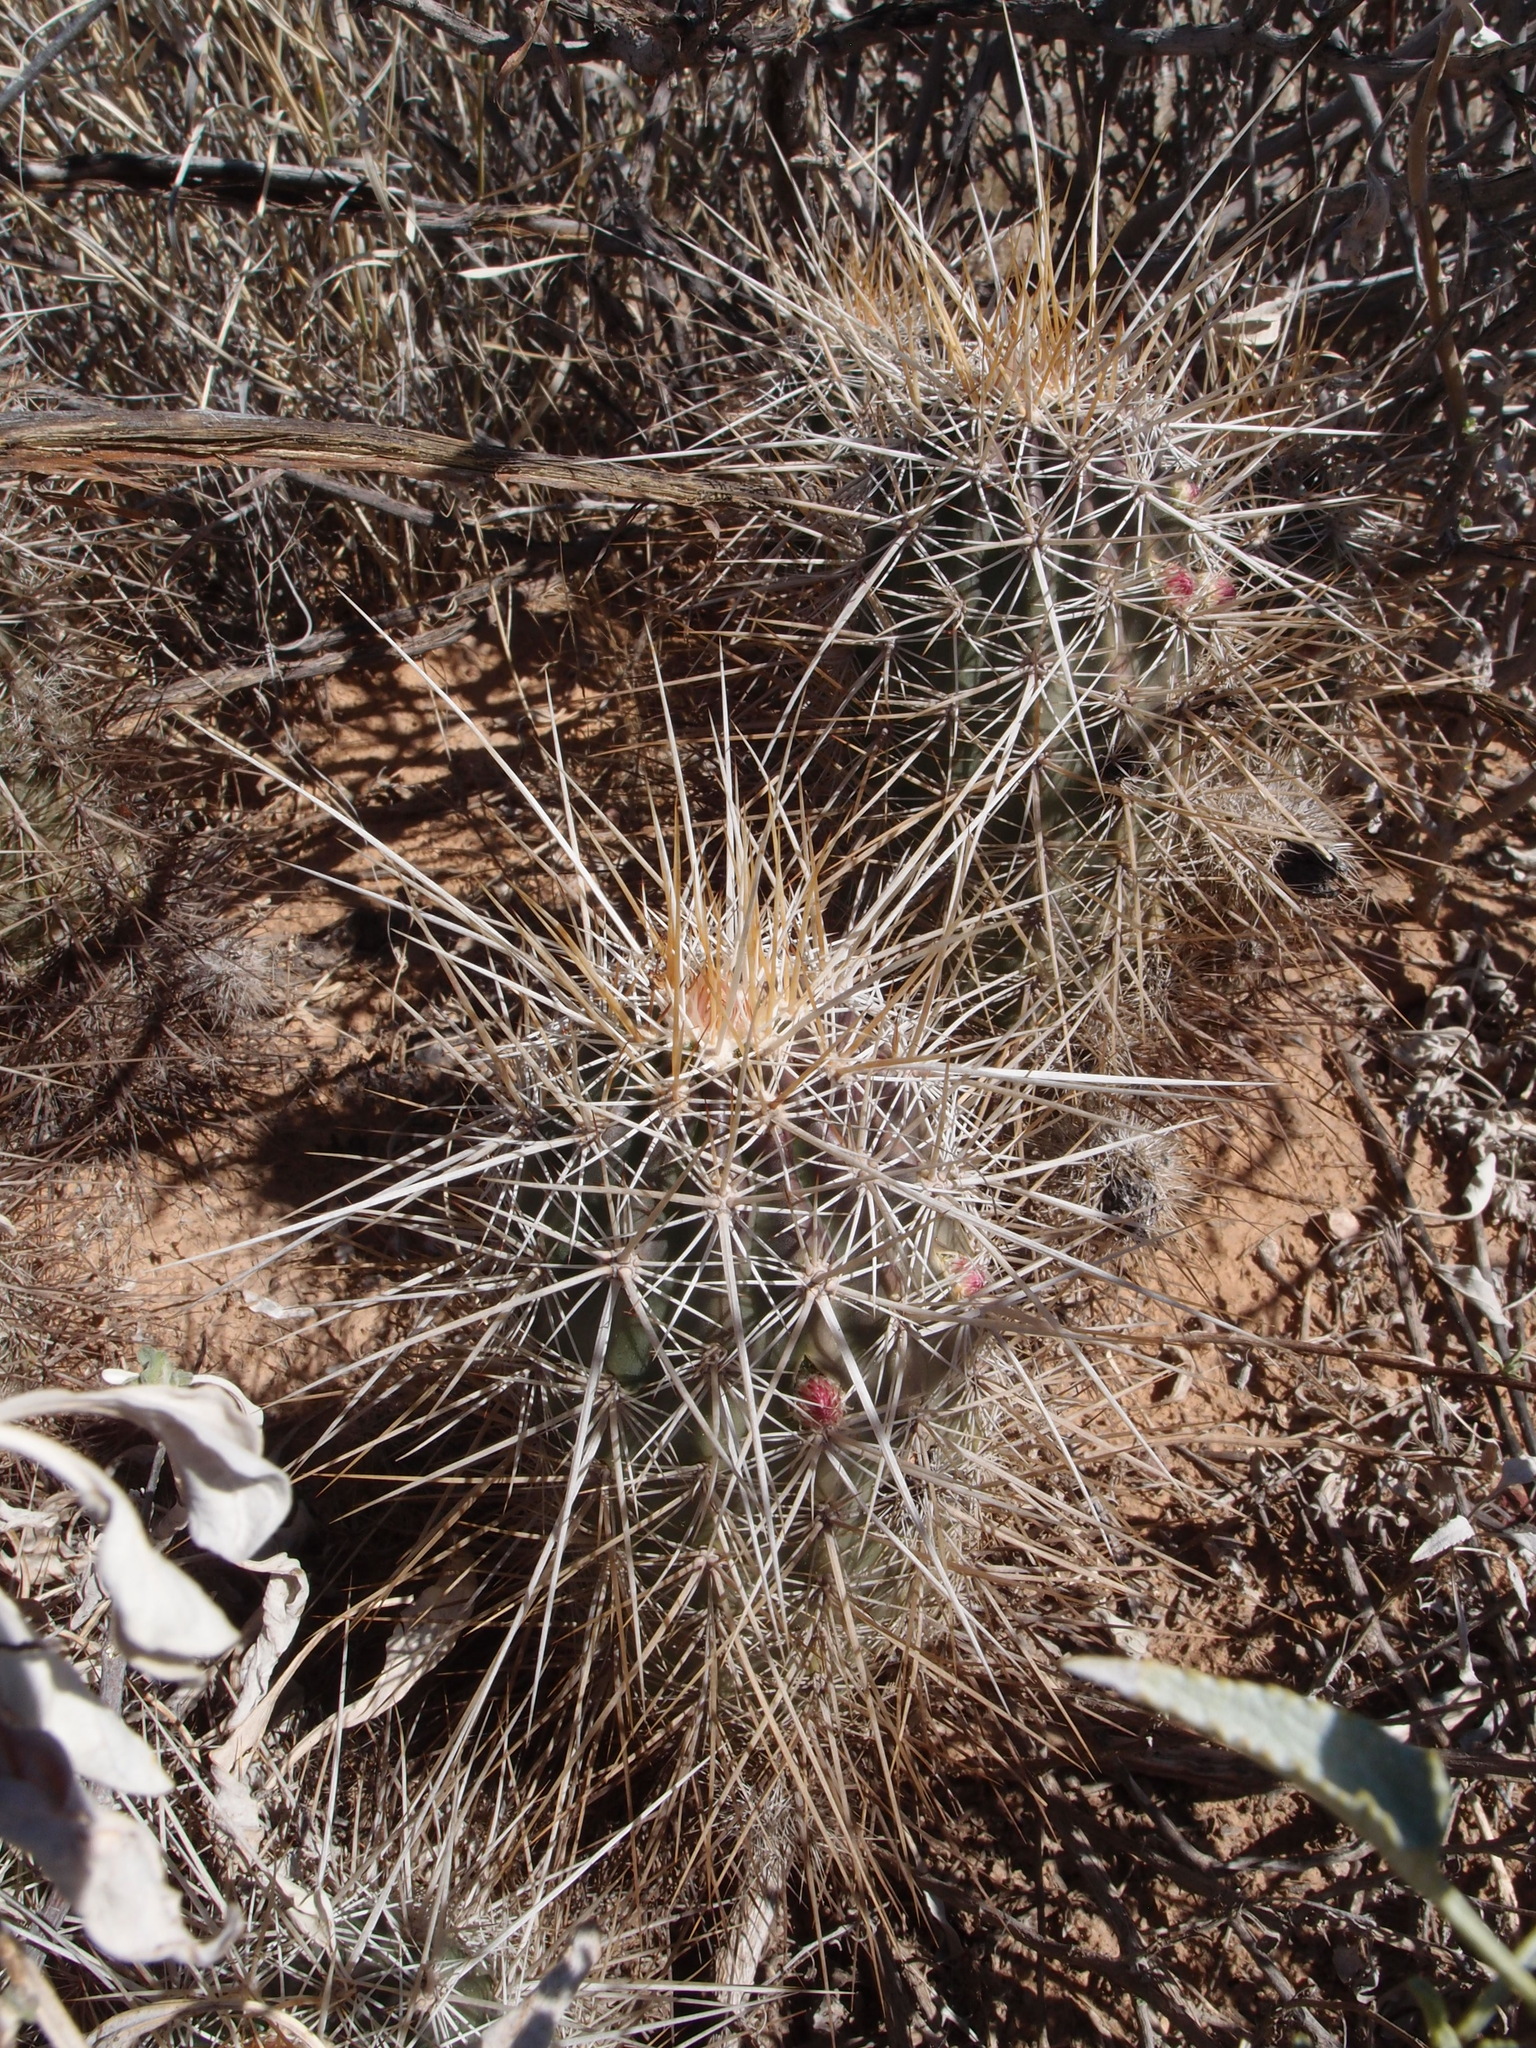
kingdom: Plantae
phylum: Tracheophyta
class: Magnoliopsida
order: Caryophyllales
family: Cactaceae
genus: Echinocereus
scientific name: Echinocereus engelmannii
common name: Engelmann's hedgehog cactus
